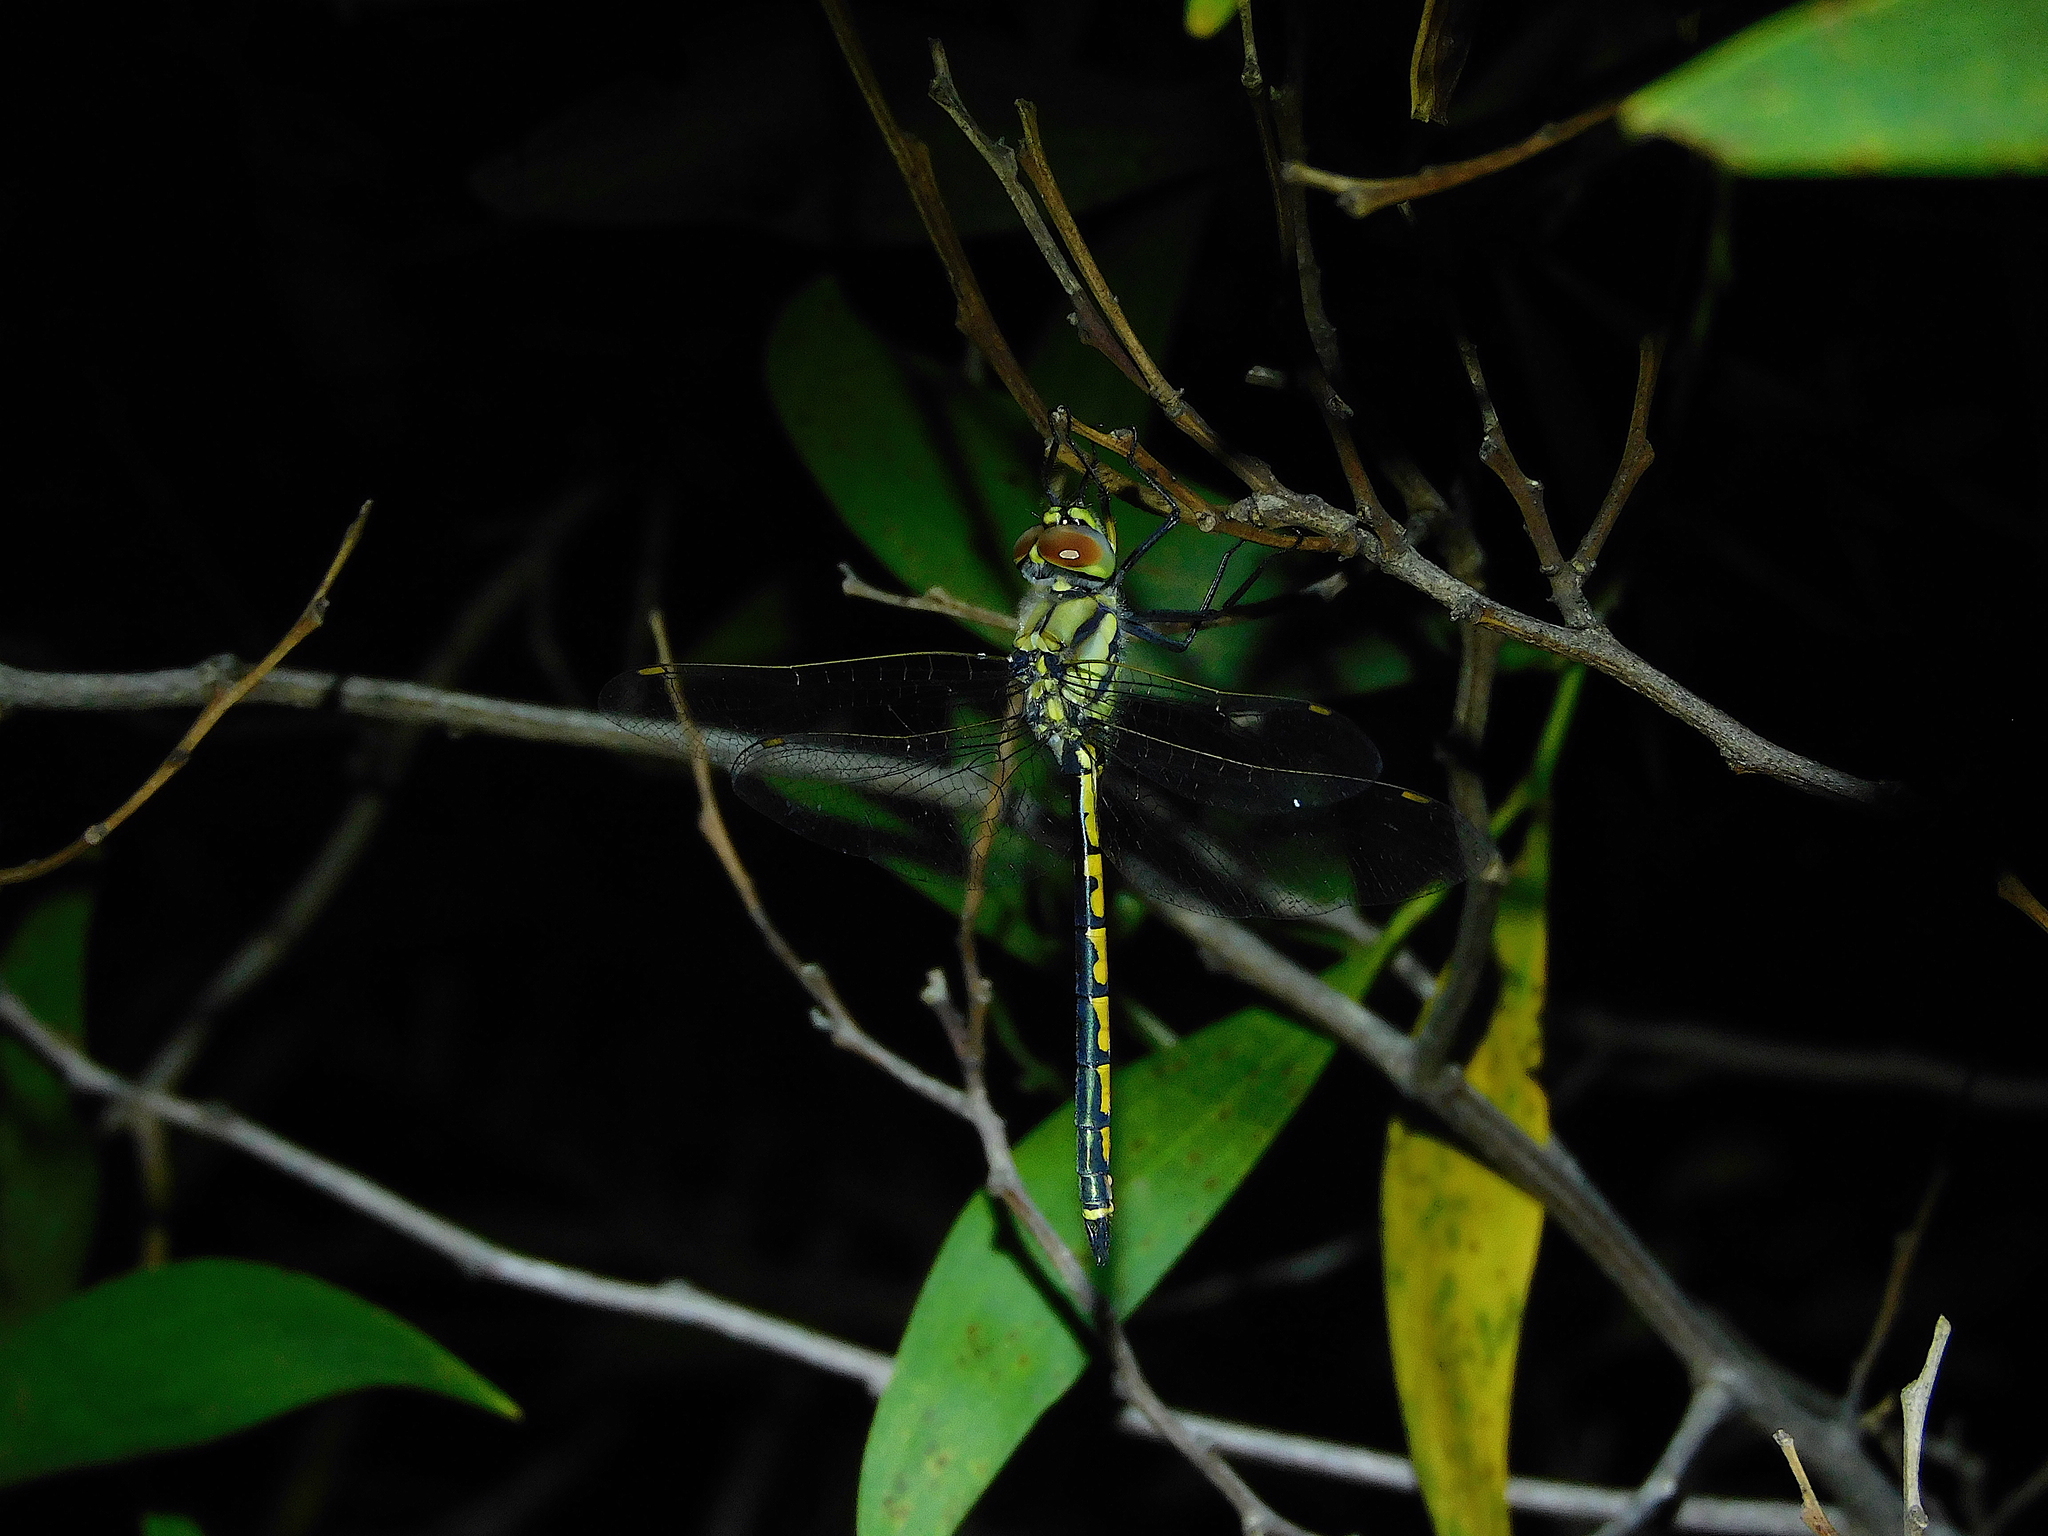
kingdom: Animalia
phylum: Arthropoda
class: Insecta
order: Odonata
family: Corduliidae
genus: Hemicordulia
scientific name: Hemicordulia tau
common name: Tau emerald
